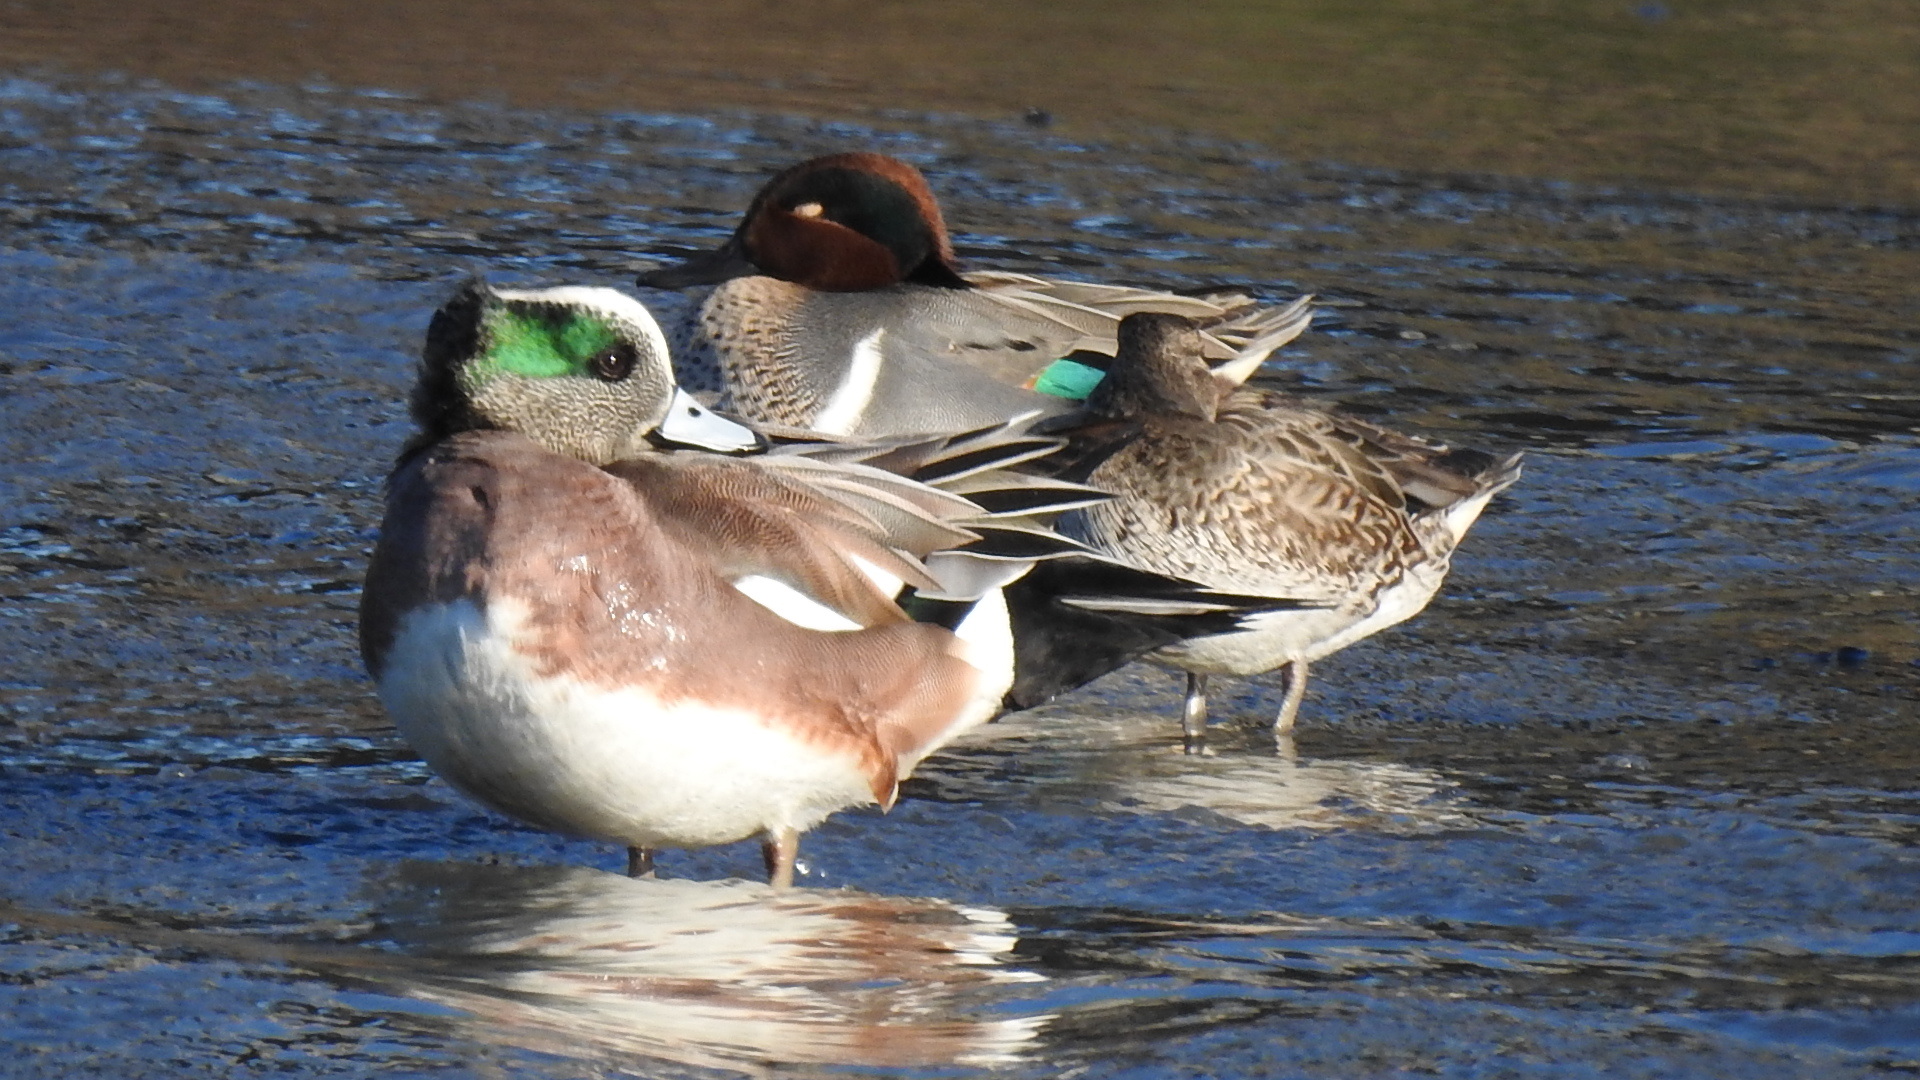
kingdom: Animalia
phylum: Chordata
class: Aves
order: Anseriformes
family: Anatidae
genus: Mareca
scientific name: Mareca americana
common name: American wigeon
